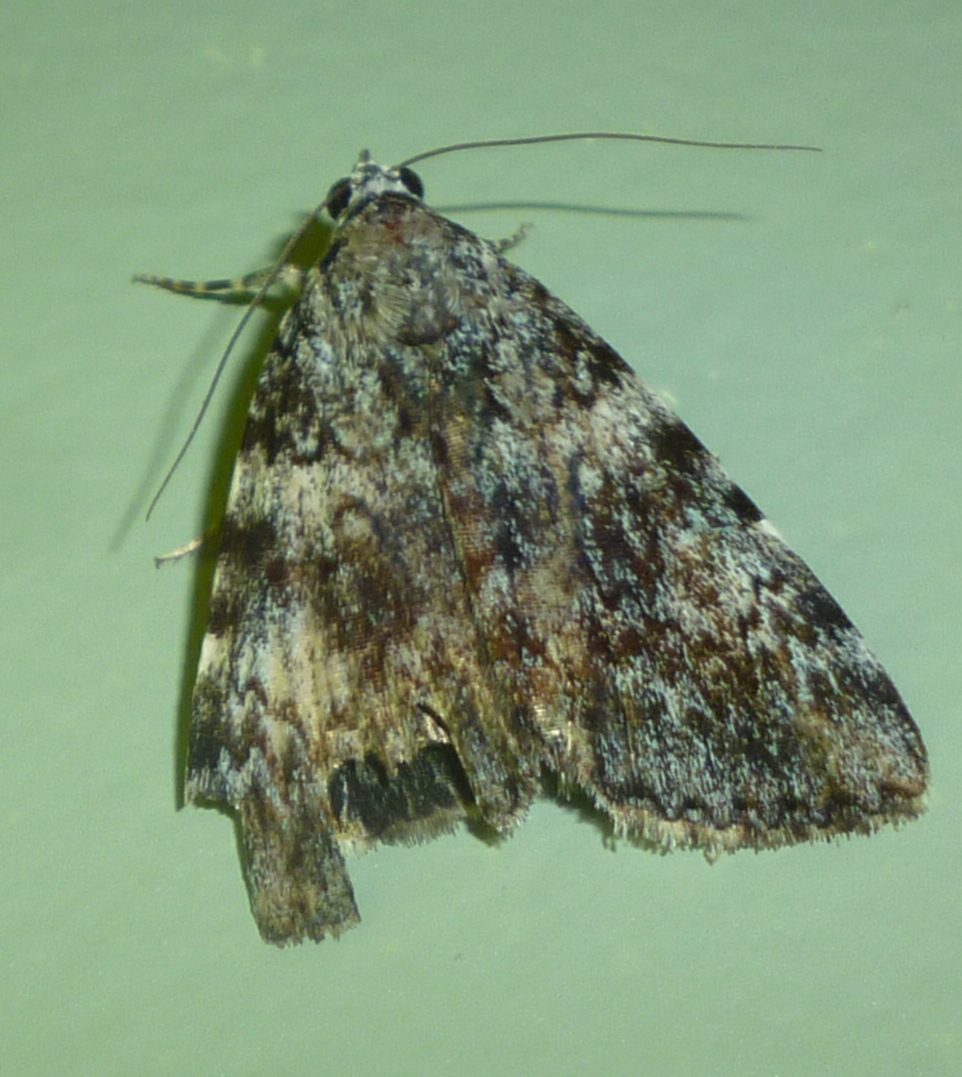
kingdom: Animalia
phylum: Arthropoda
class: Insecta
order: Lepidoptera
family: Erebidae
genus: Catocala
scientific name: Catocala lineella
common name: Little lined underwing
